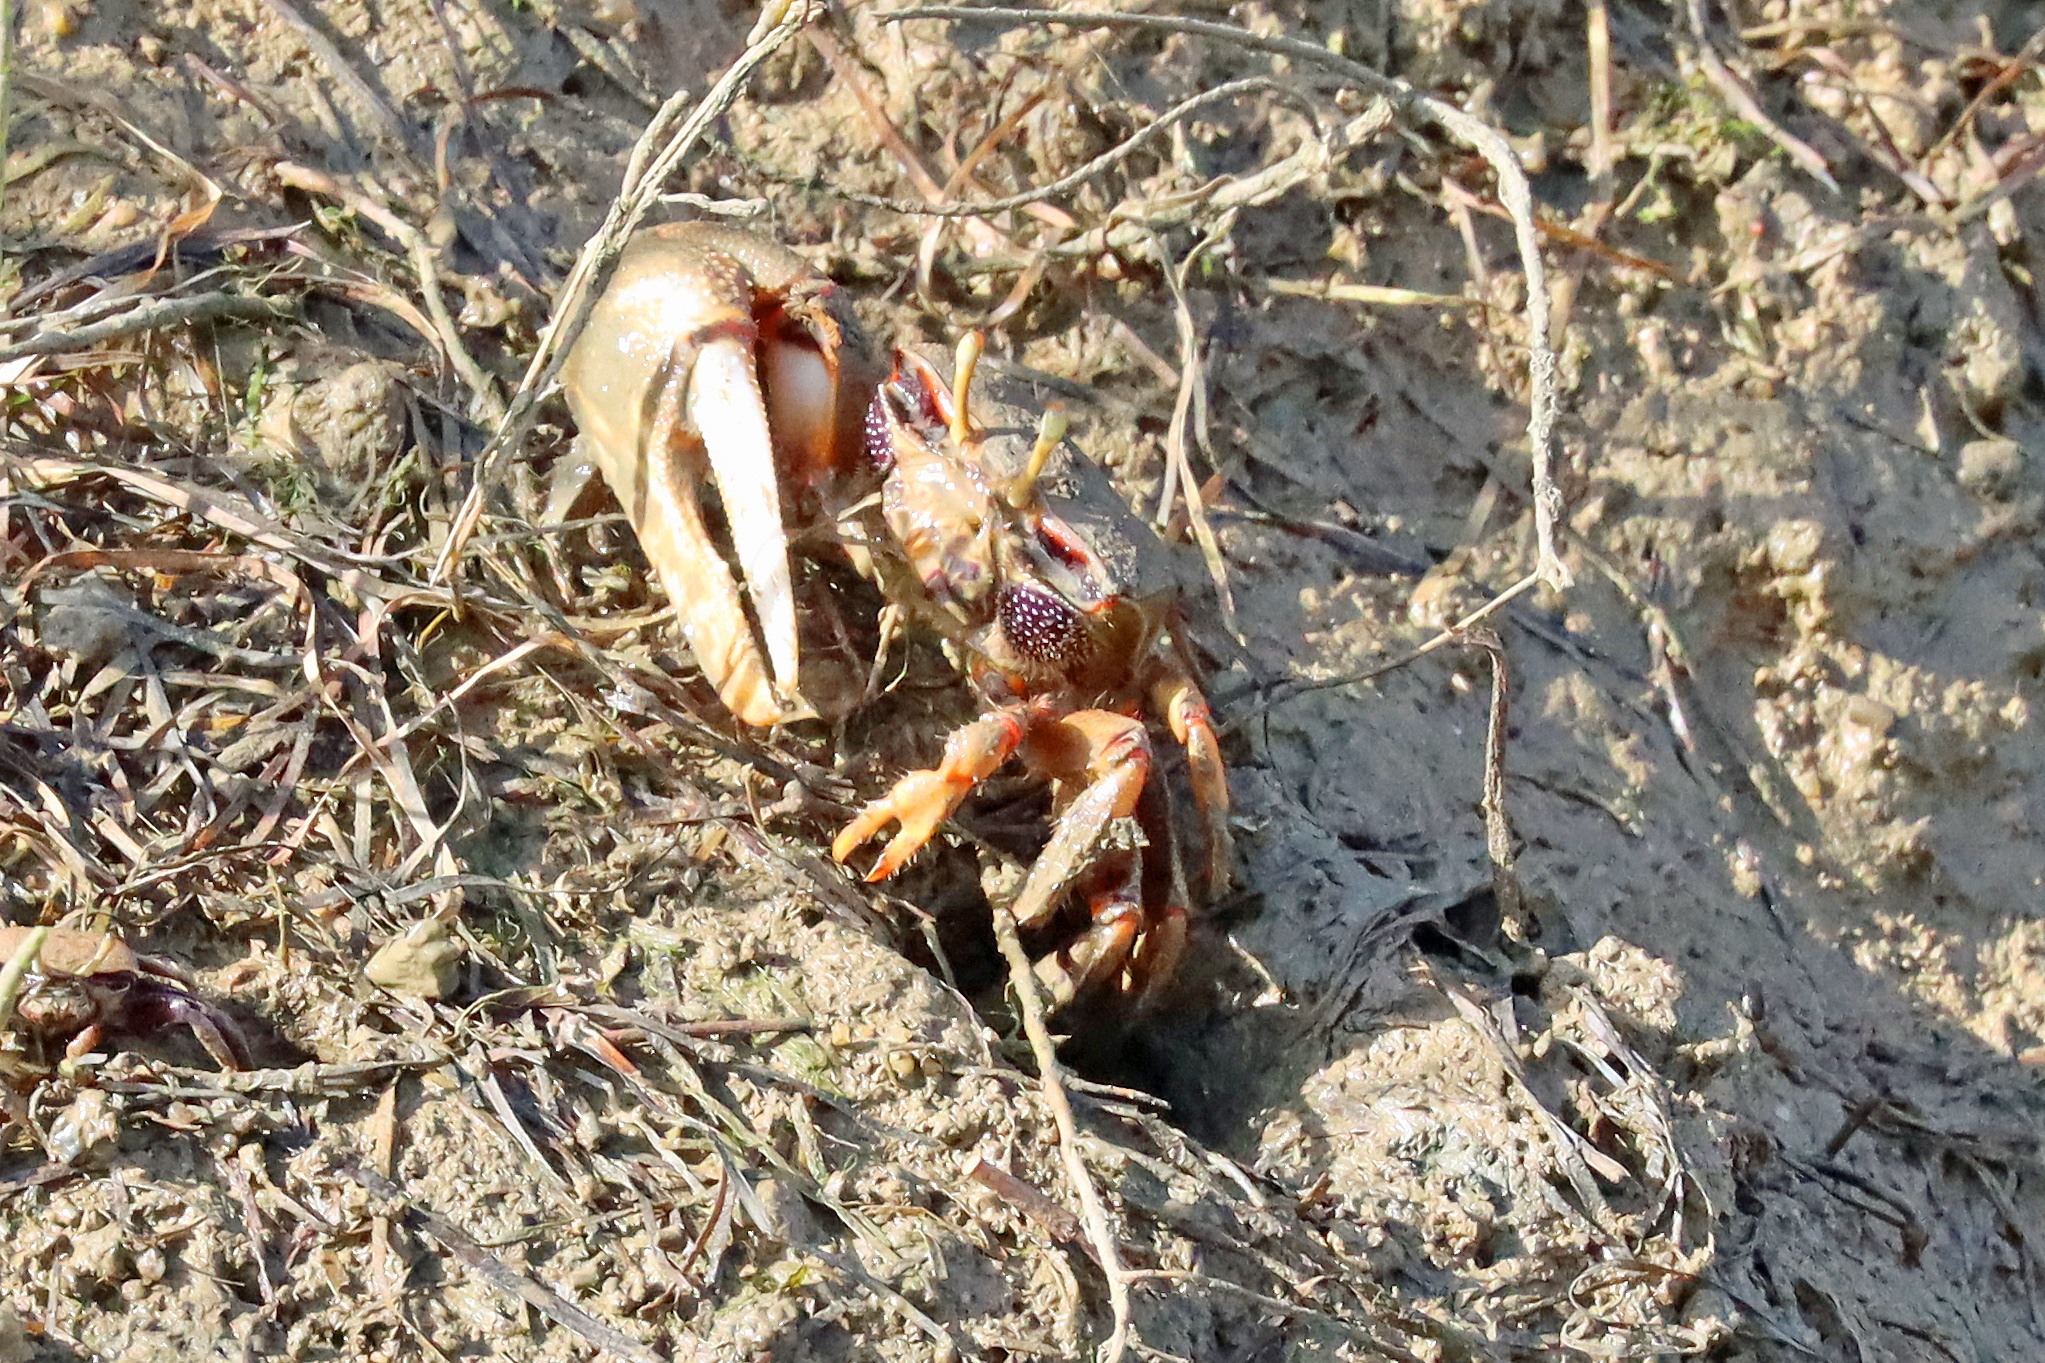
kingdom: Animalia
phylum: Arthropoda
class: Malacostraca
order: Decapoda
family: Ocypodidae
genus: Afruca
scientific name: Afruca tangeri
